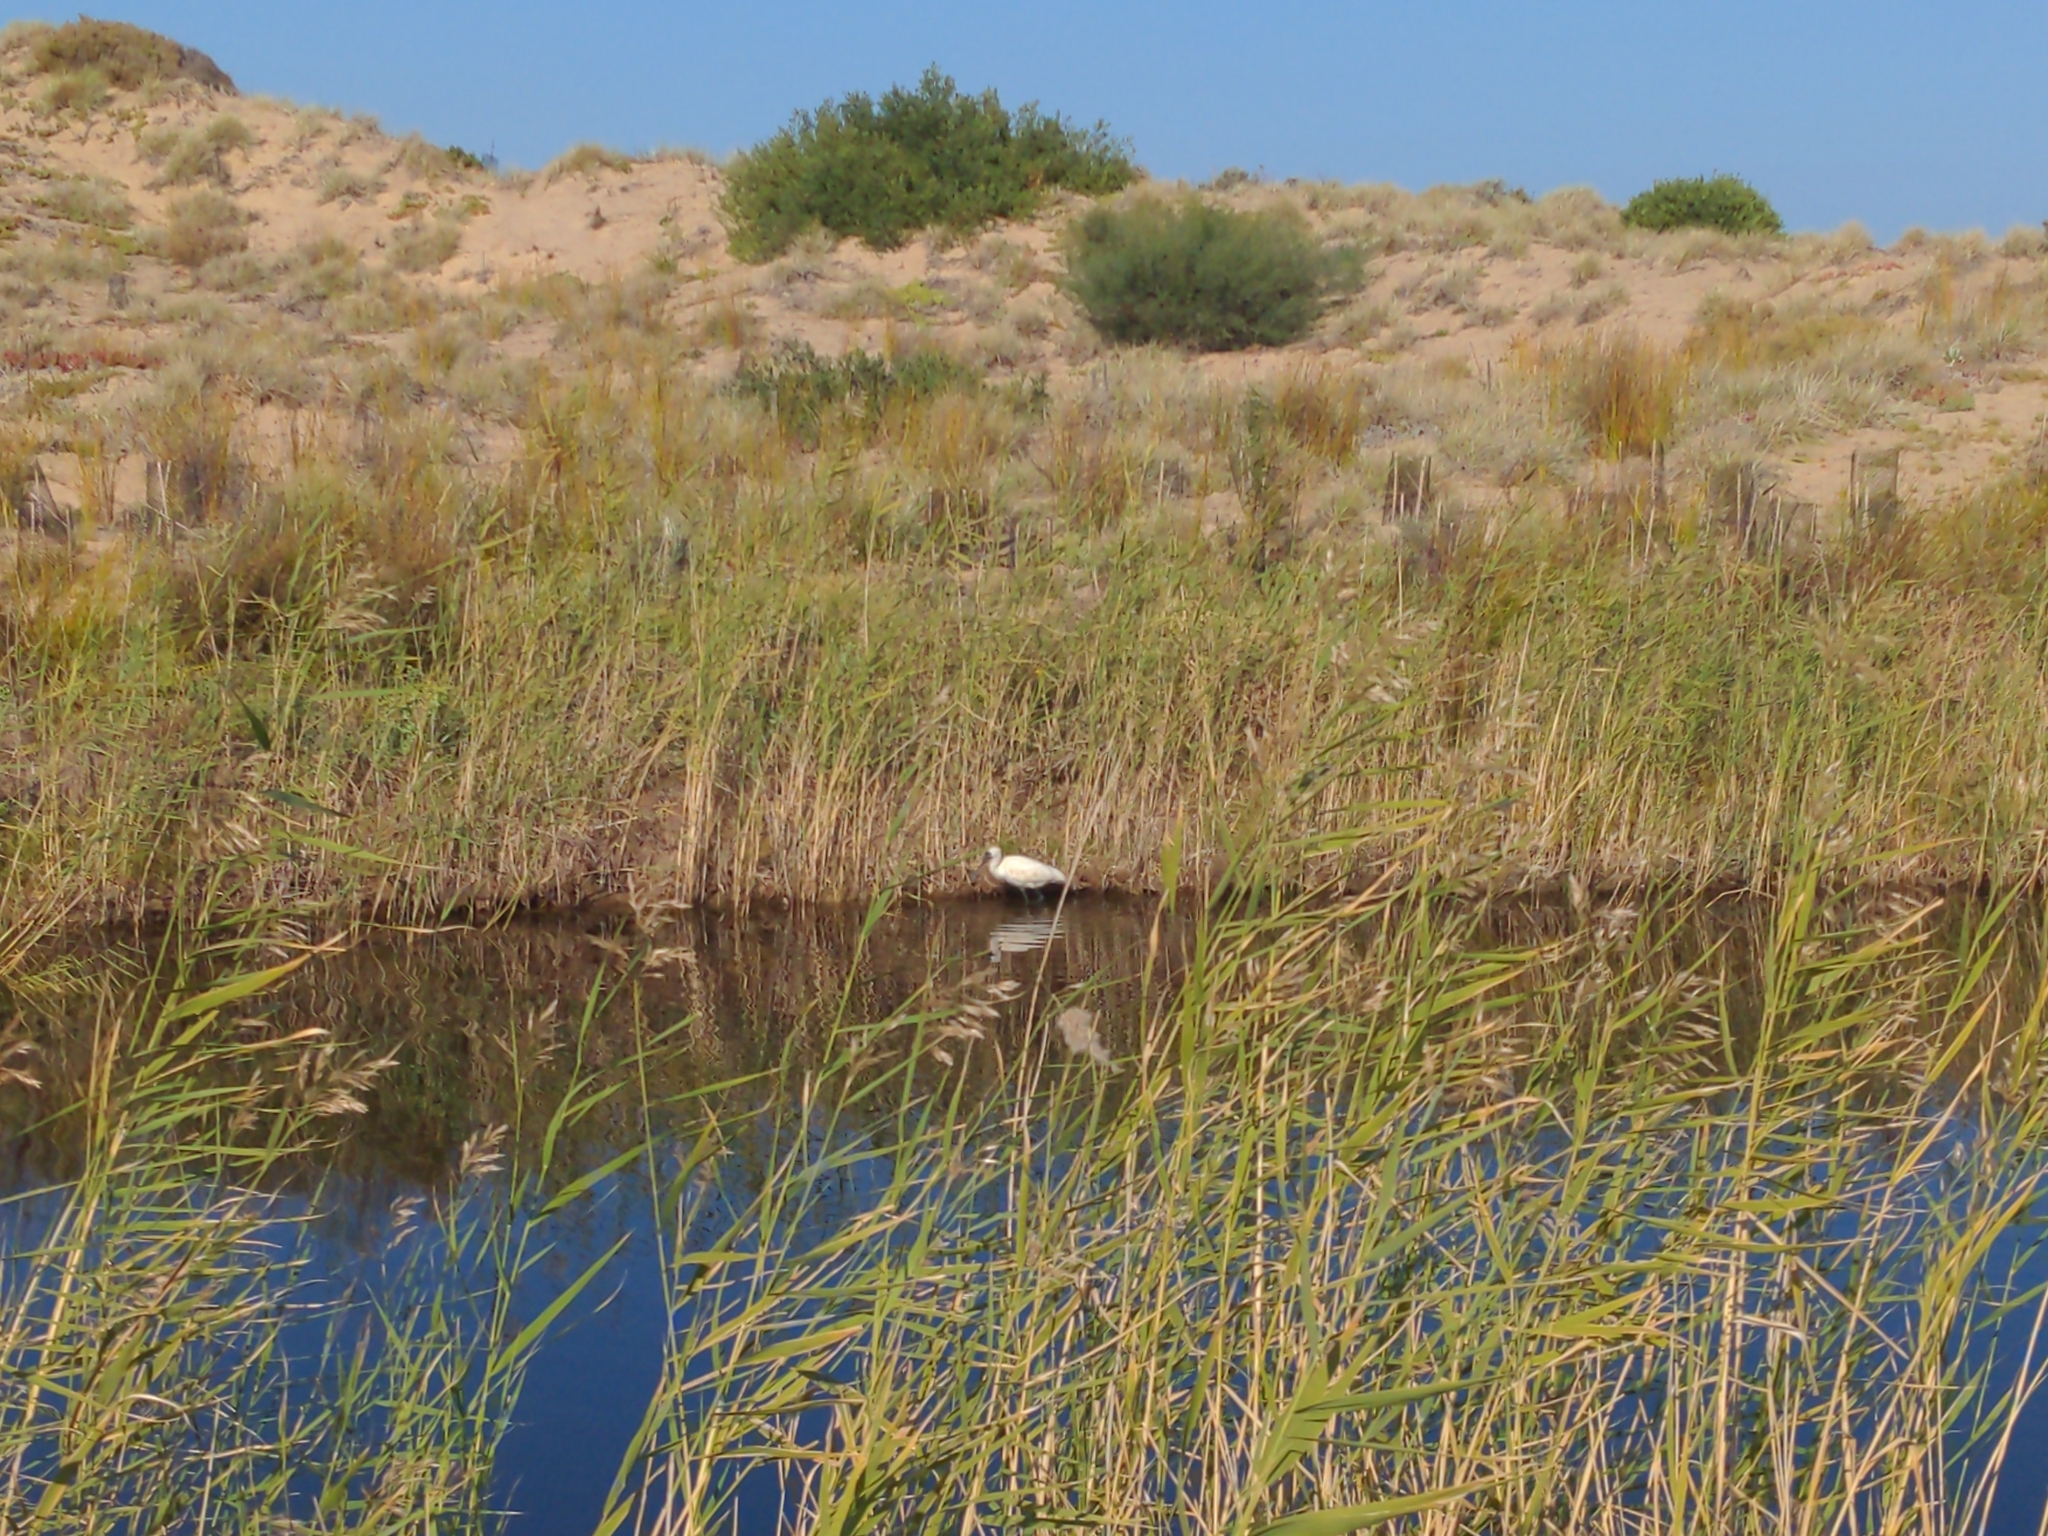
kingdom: Animalia
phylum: Chordata
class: Aves
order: Pelecaniformes
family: Threskiornithidae
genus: Platalea
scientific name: Platalea regia
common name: Royal spoonbill
